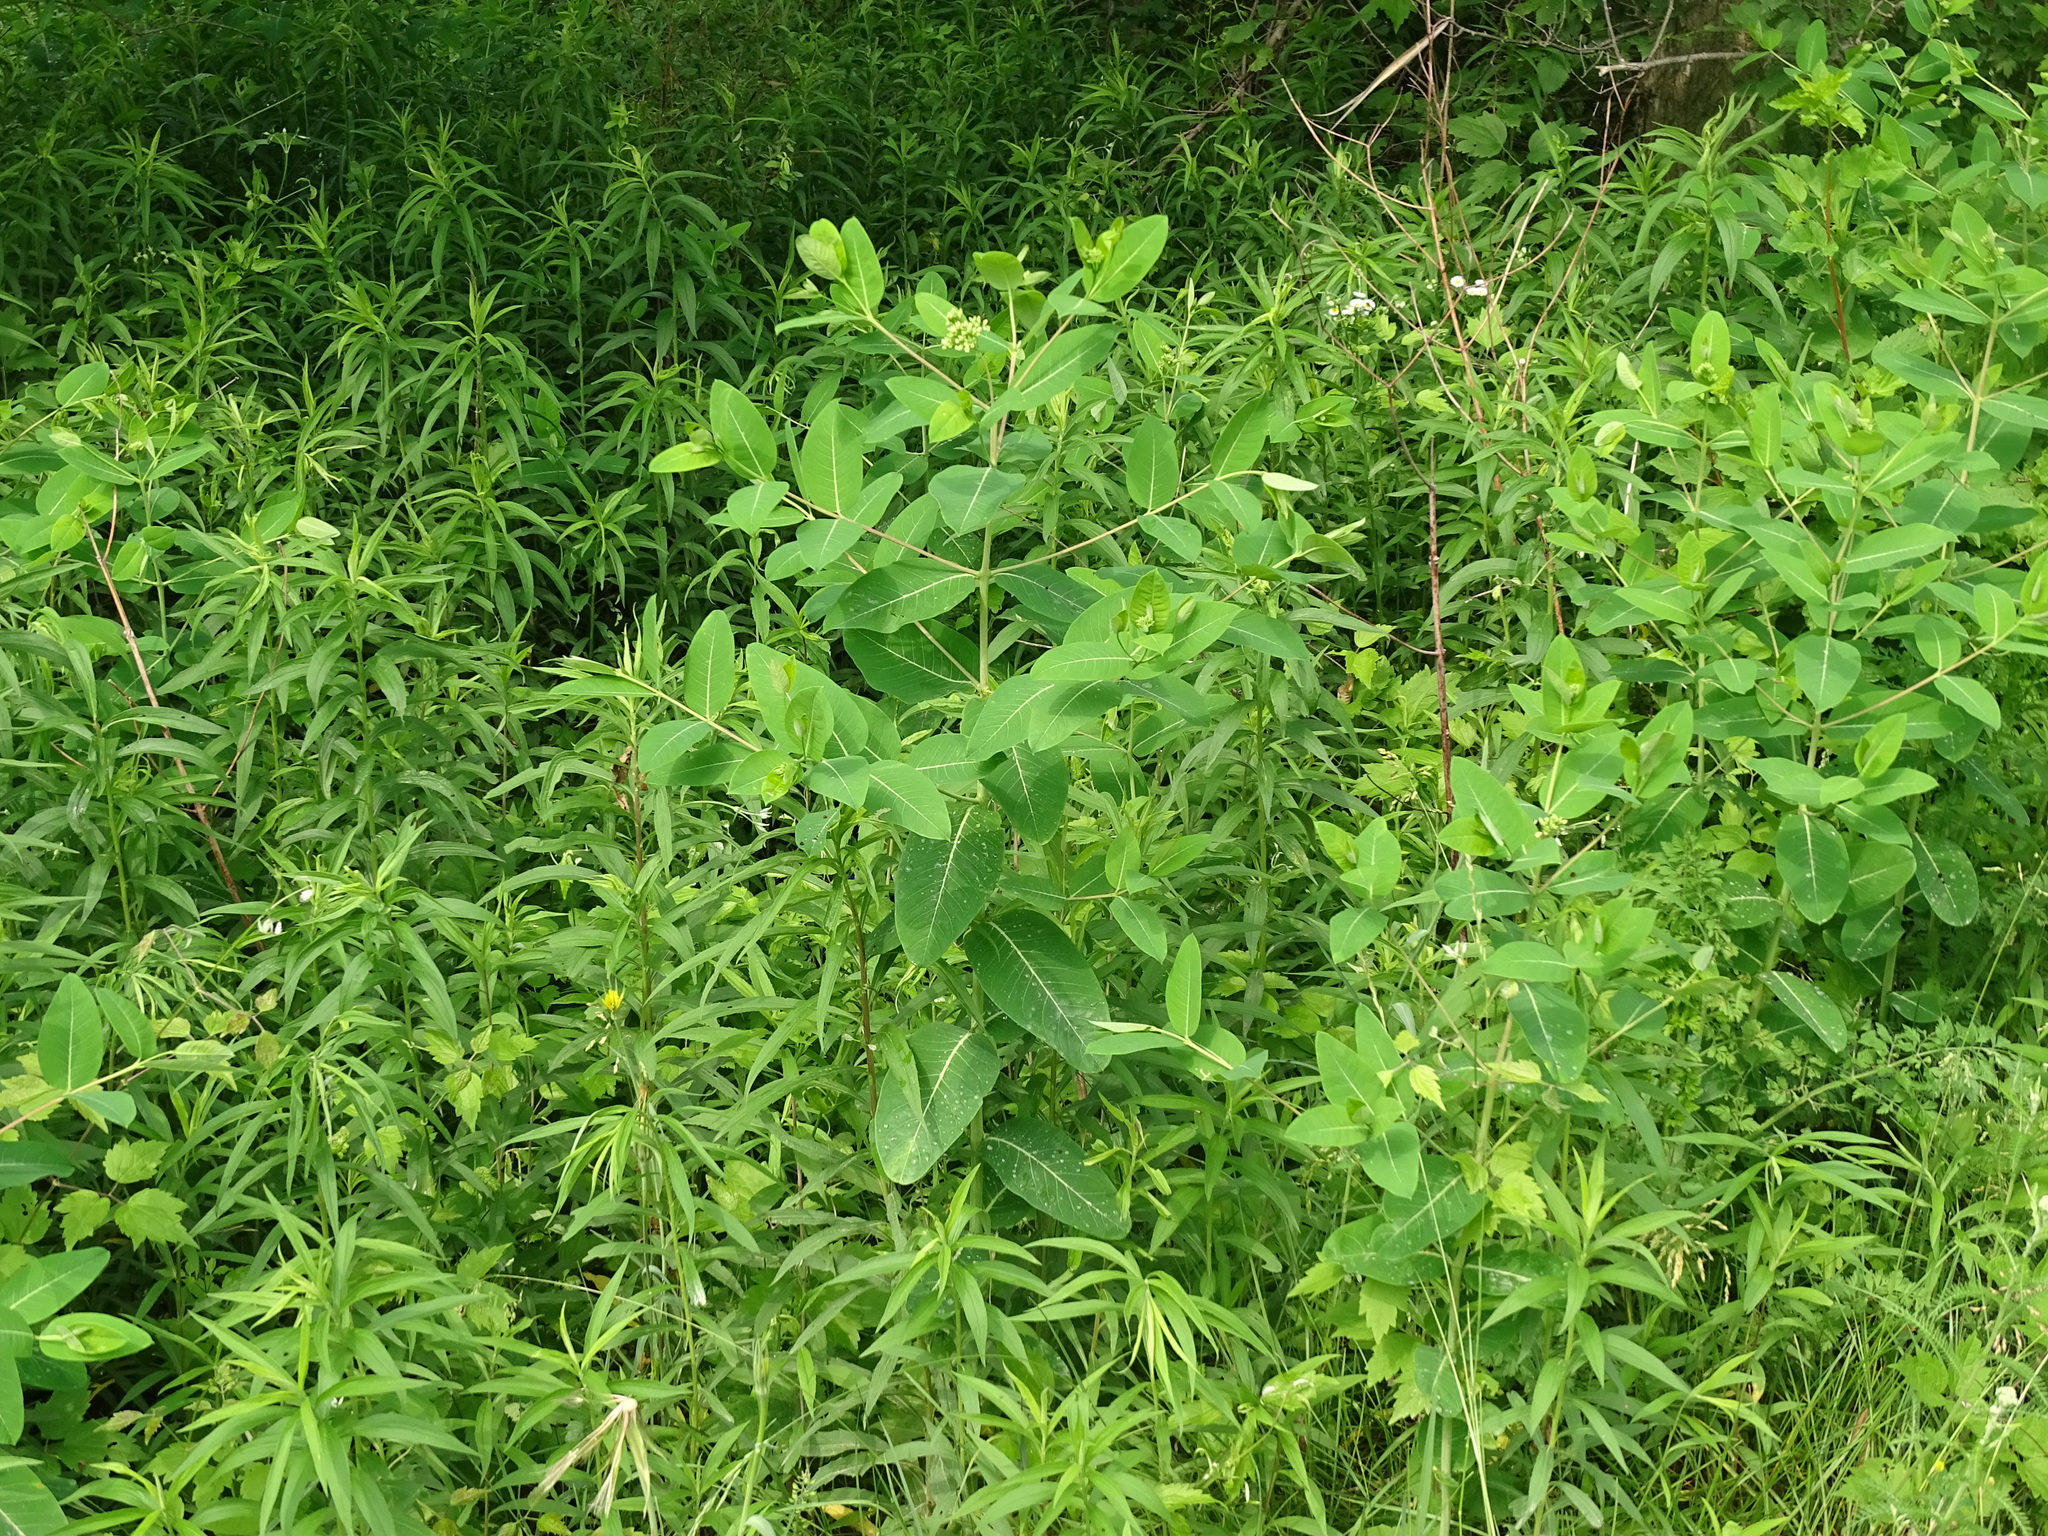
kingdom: Plantae
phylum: Tracheophyta
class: Magnoliopsida
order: Gentianales
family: Apocynaceae
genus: Apocynum
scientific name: Apocynum cannabinum
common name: Hemp dogbane
